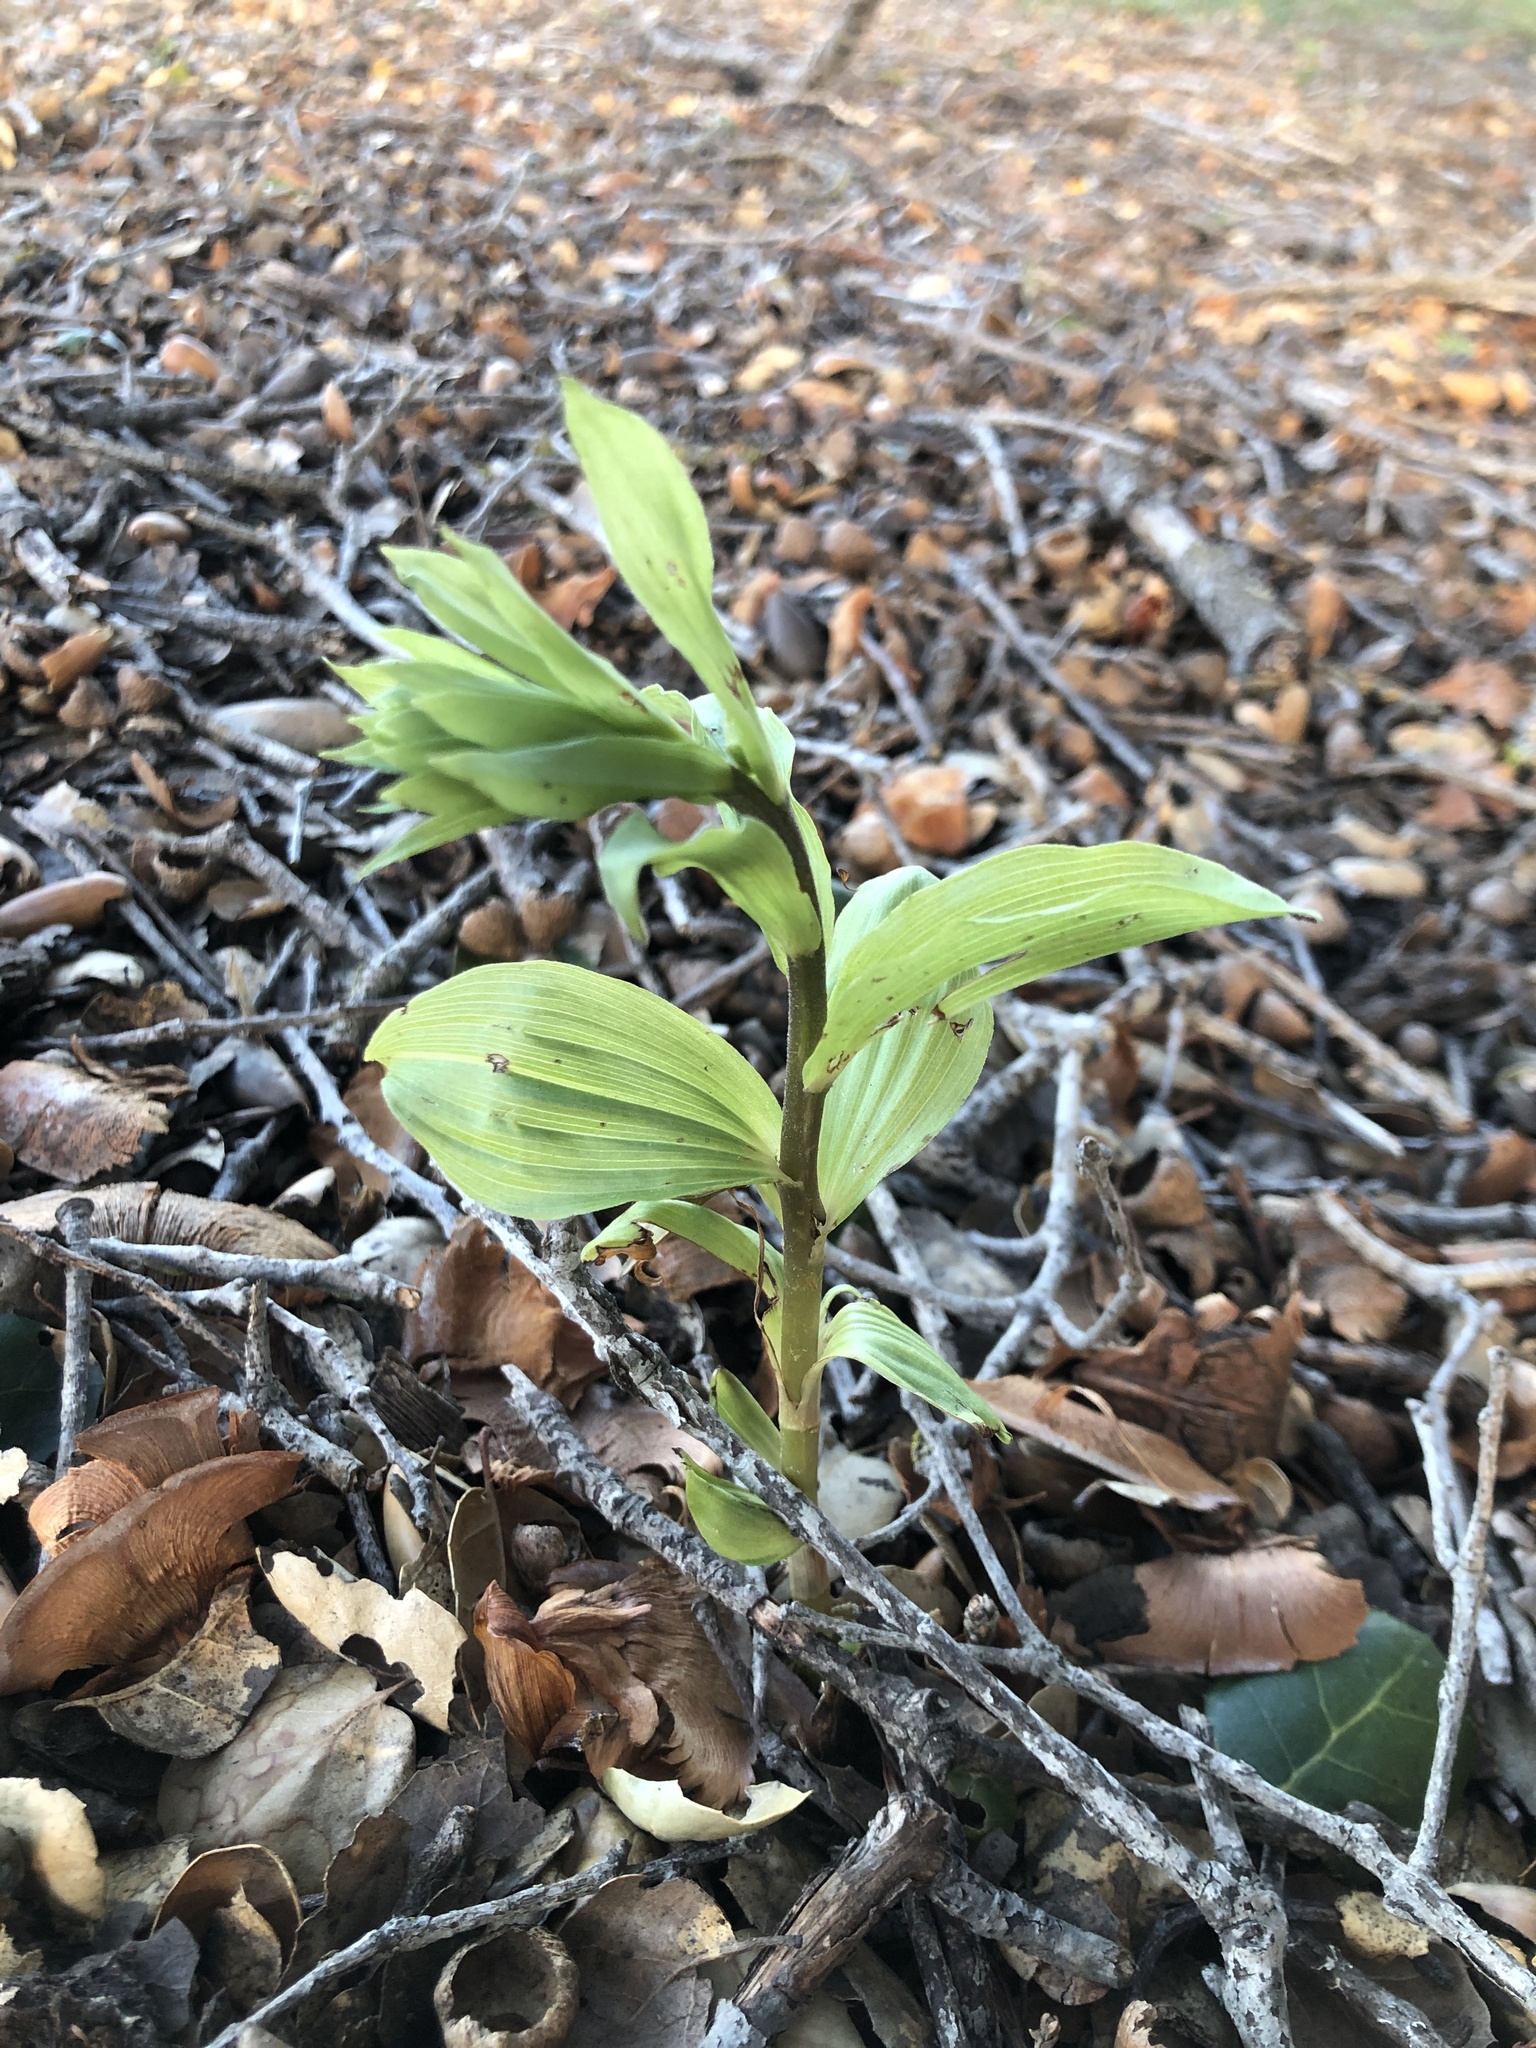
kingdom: Plantae
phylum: Tracheophyta
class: Liliopsida
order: Asparagales
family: Orchidaceae
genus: Epipactis
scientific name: Epipactis helleborine
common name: Broad-leaved helleborine
